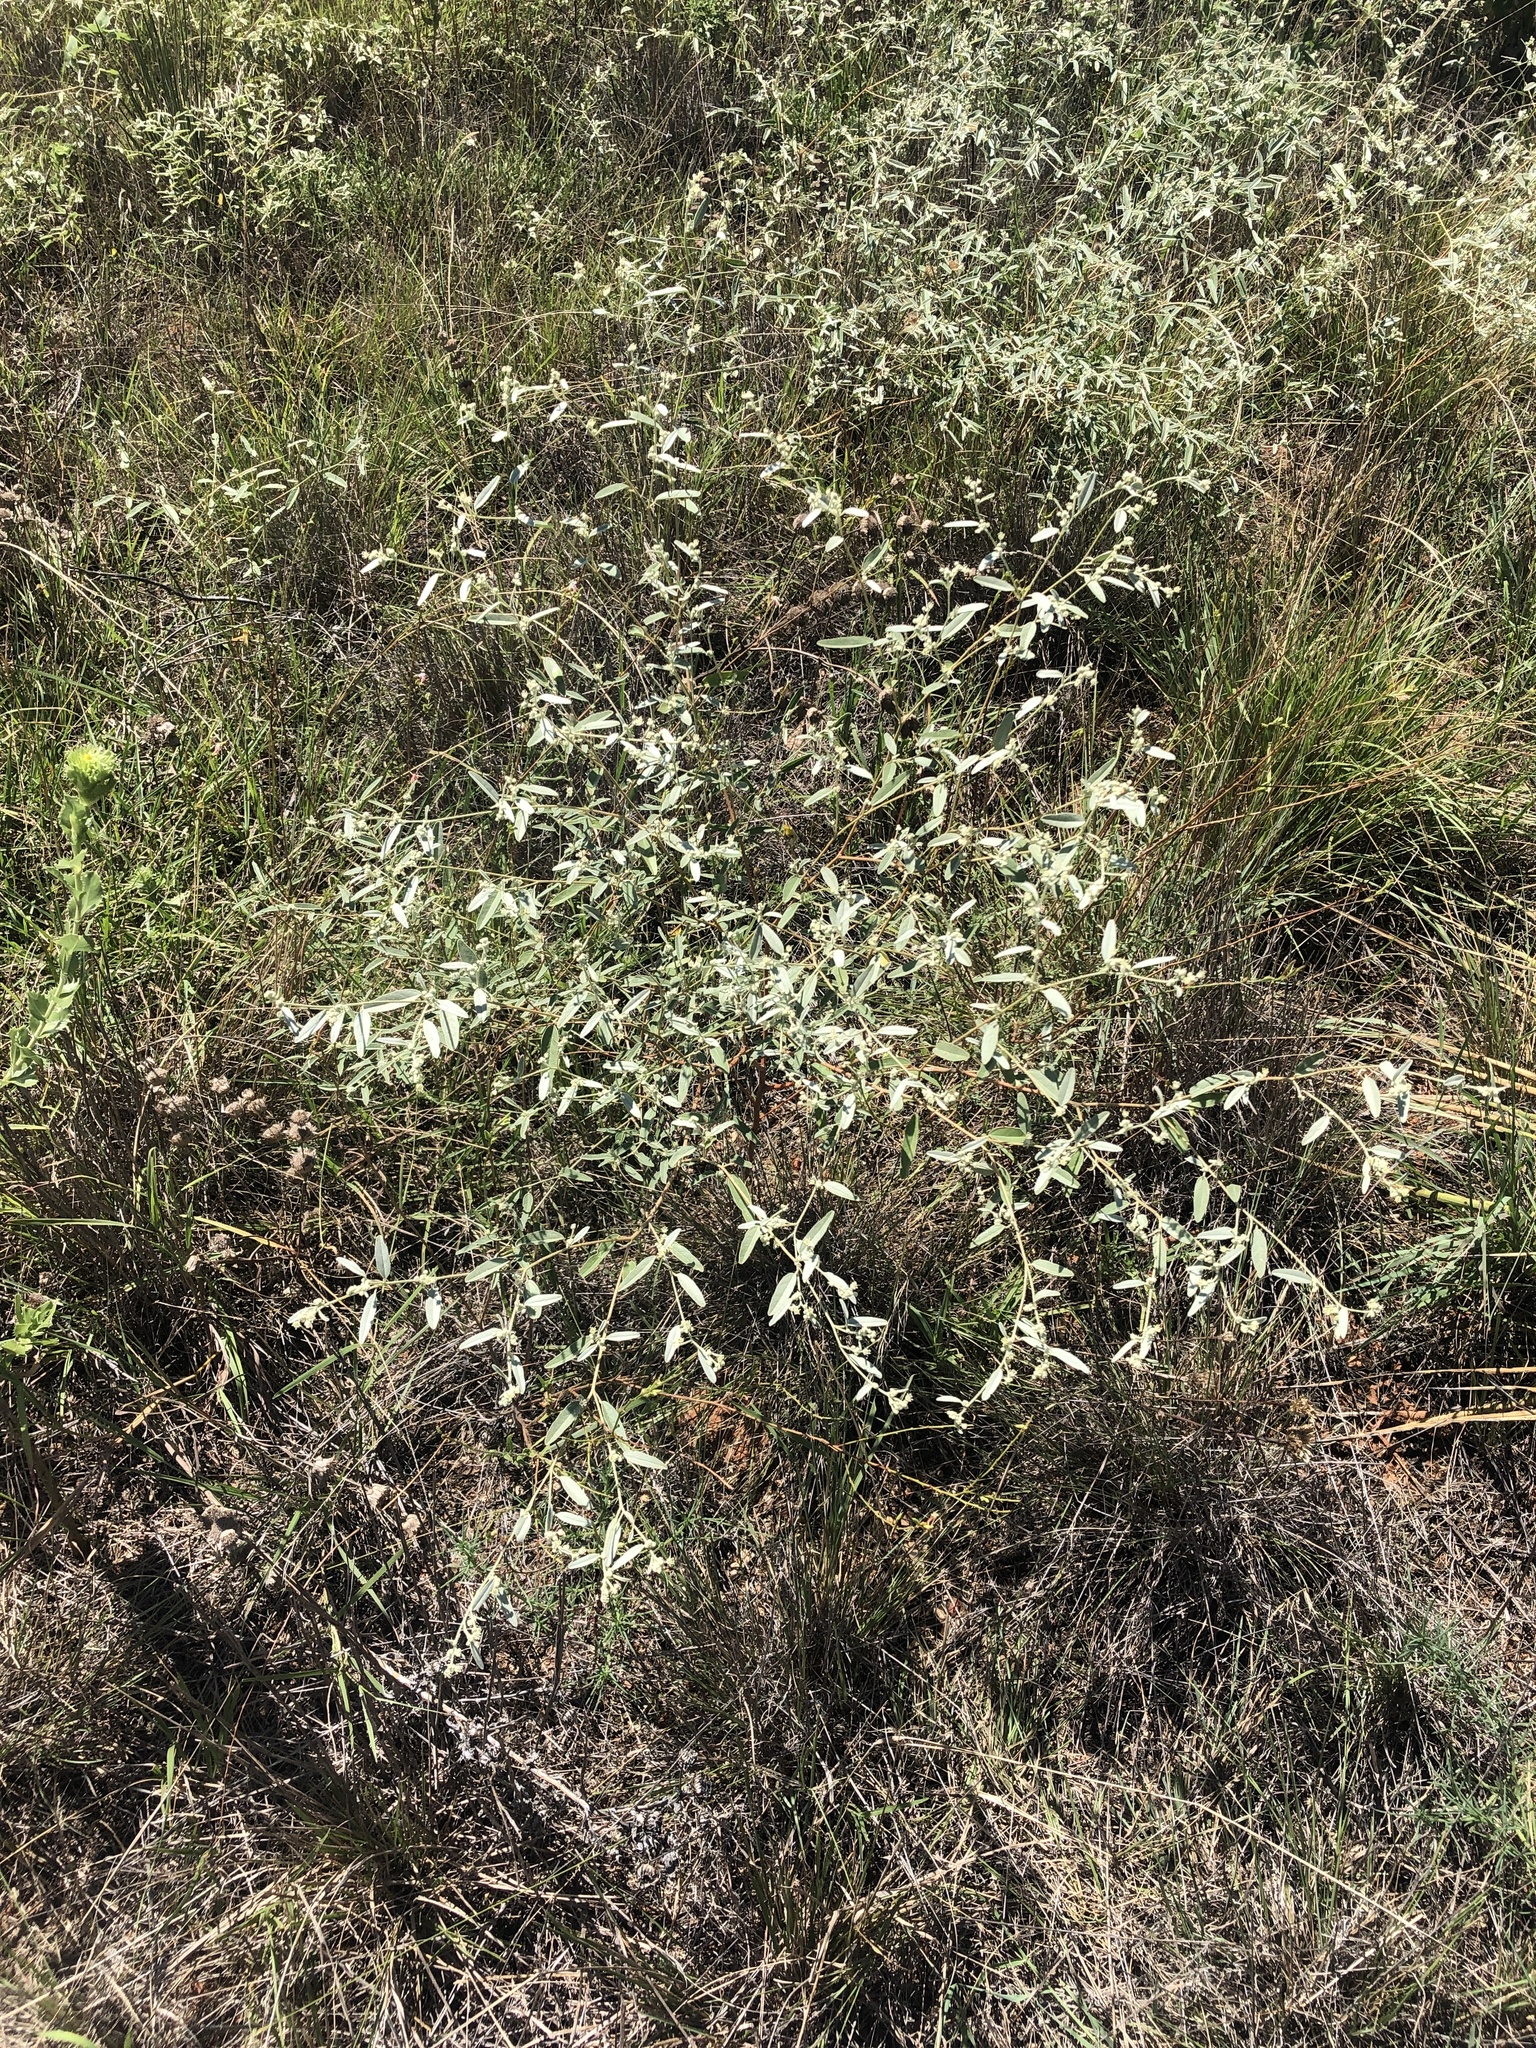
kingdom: Plantae
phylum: Tracheophyta
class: Magnoliopsida
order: Malpighiales
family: Euphorbiaceae
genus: Croton
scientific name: Croton texensis
